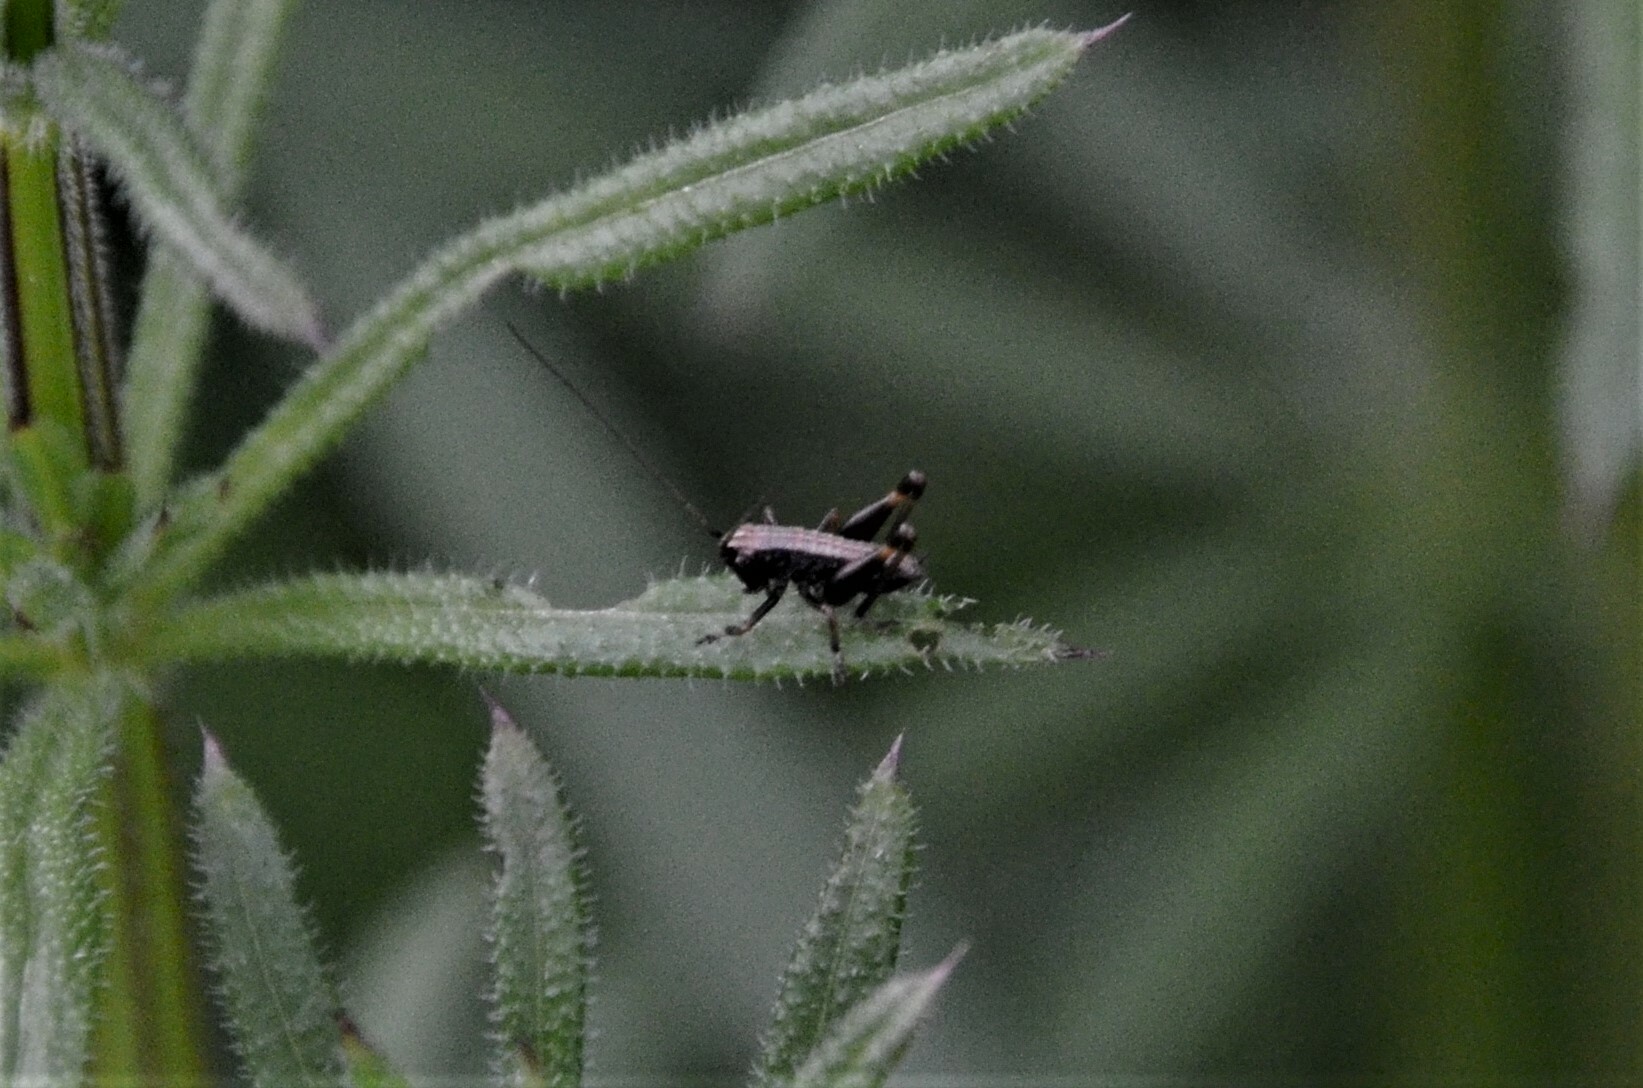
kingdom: Animalia
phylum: Arthropoda
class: Insecta
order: Orthoptera
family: Tettigoniidae
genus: Pholidoptera
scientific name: Pholidoptera griseoaptera
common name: Dark bush-cricket
